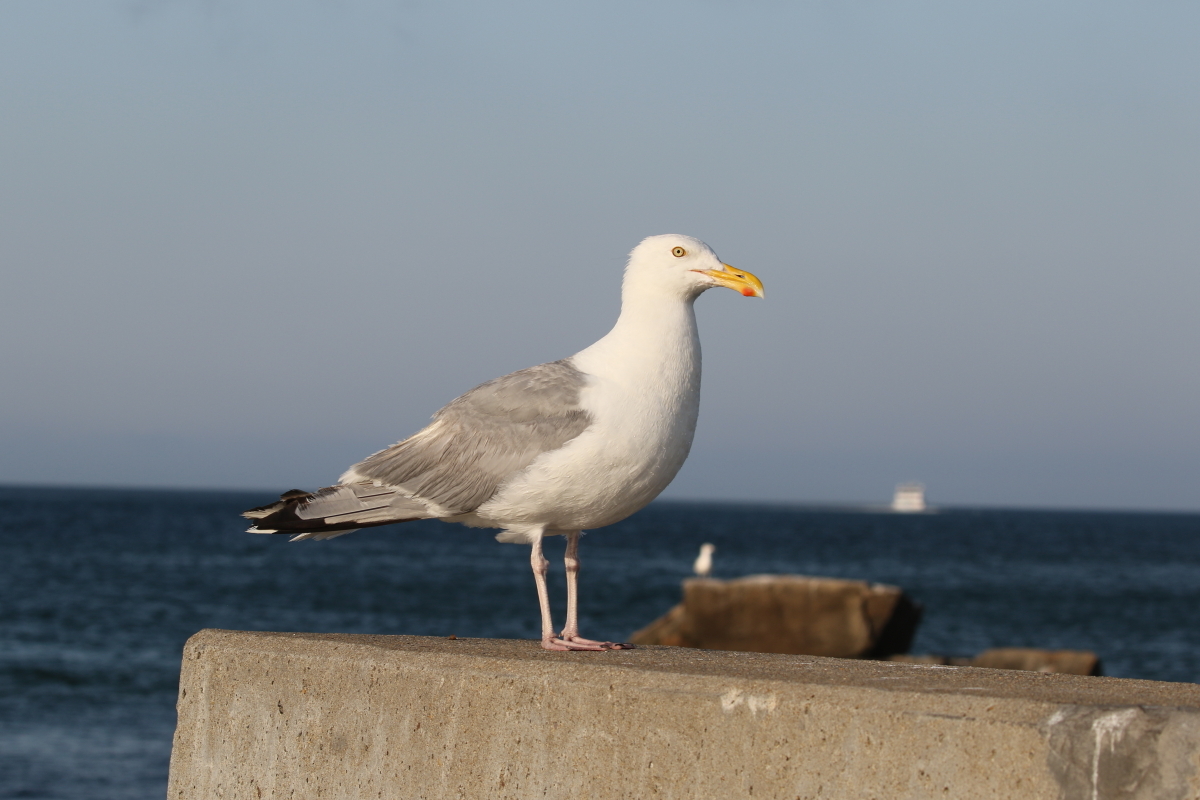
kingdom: Animalia
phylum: Chordata
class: Aves
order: Charadriiformes
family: Laridae
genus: Larus
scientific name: Larus argentatus
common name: Herring gull
